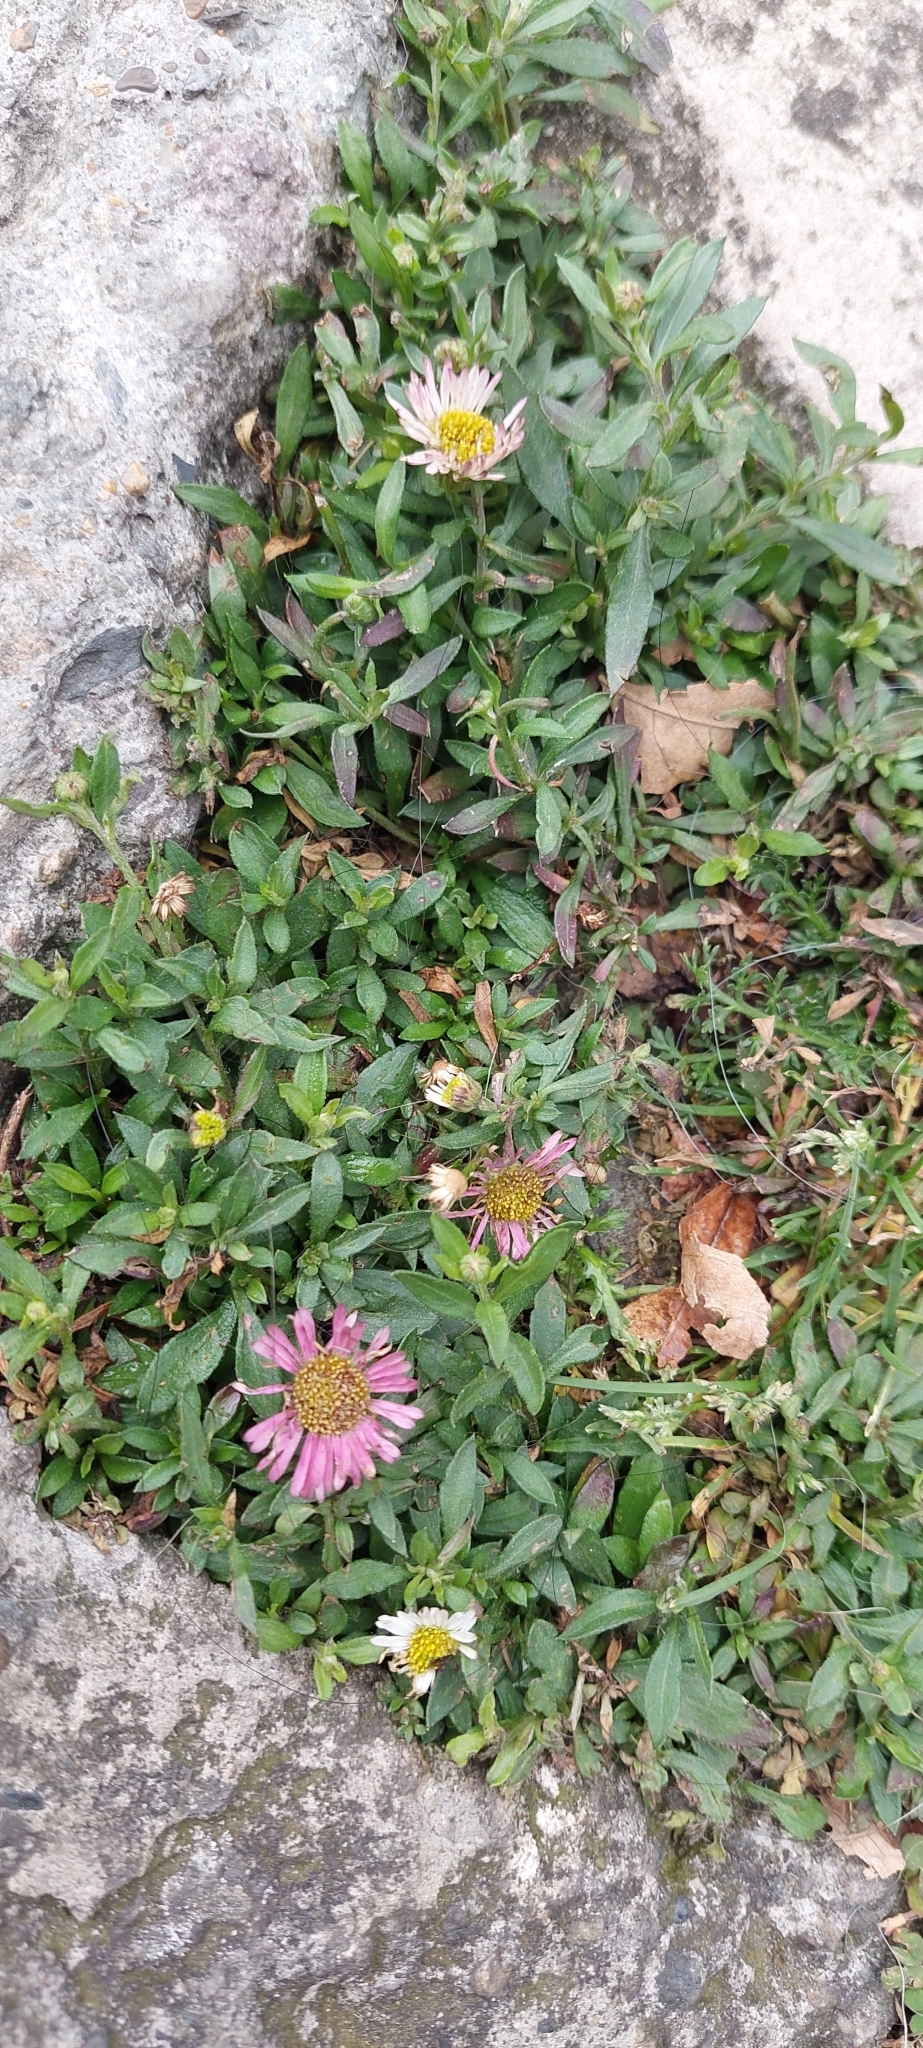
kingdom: Plantae
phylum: Tracheophyta
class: Magnoliopsida
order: Asterales
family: Asteraceae
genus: Erigeron
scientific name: Erigeron karvinskianus
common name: Mexican fleabane
